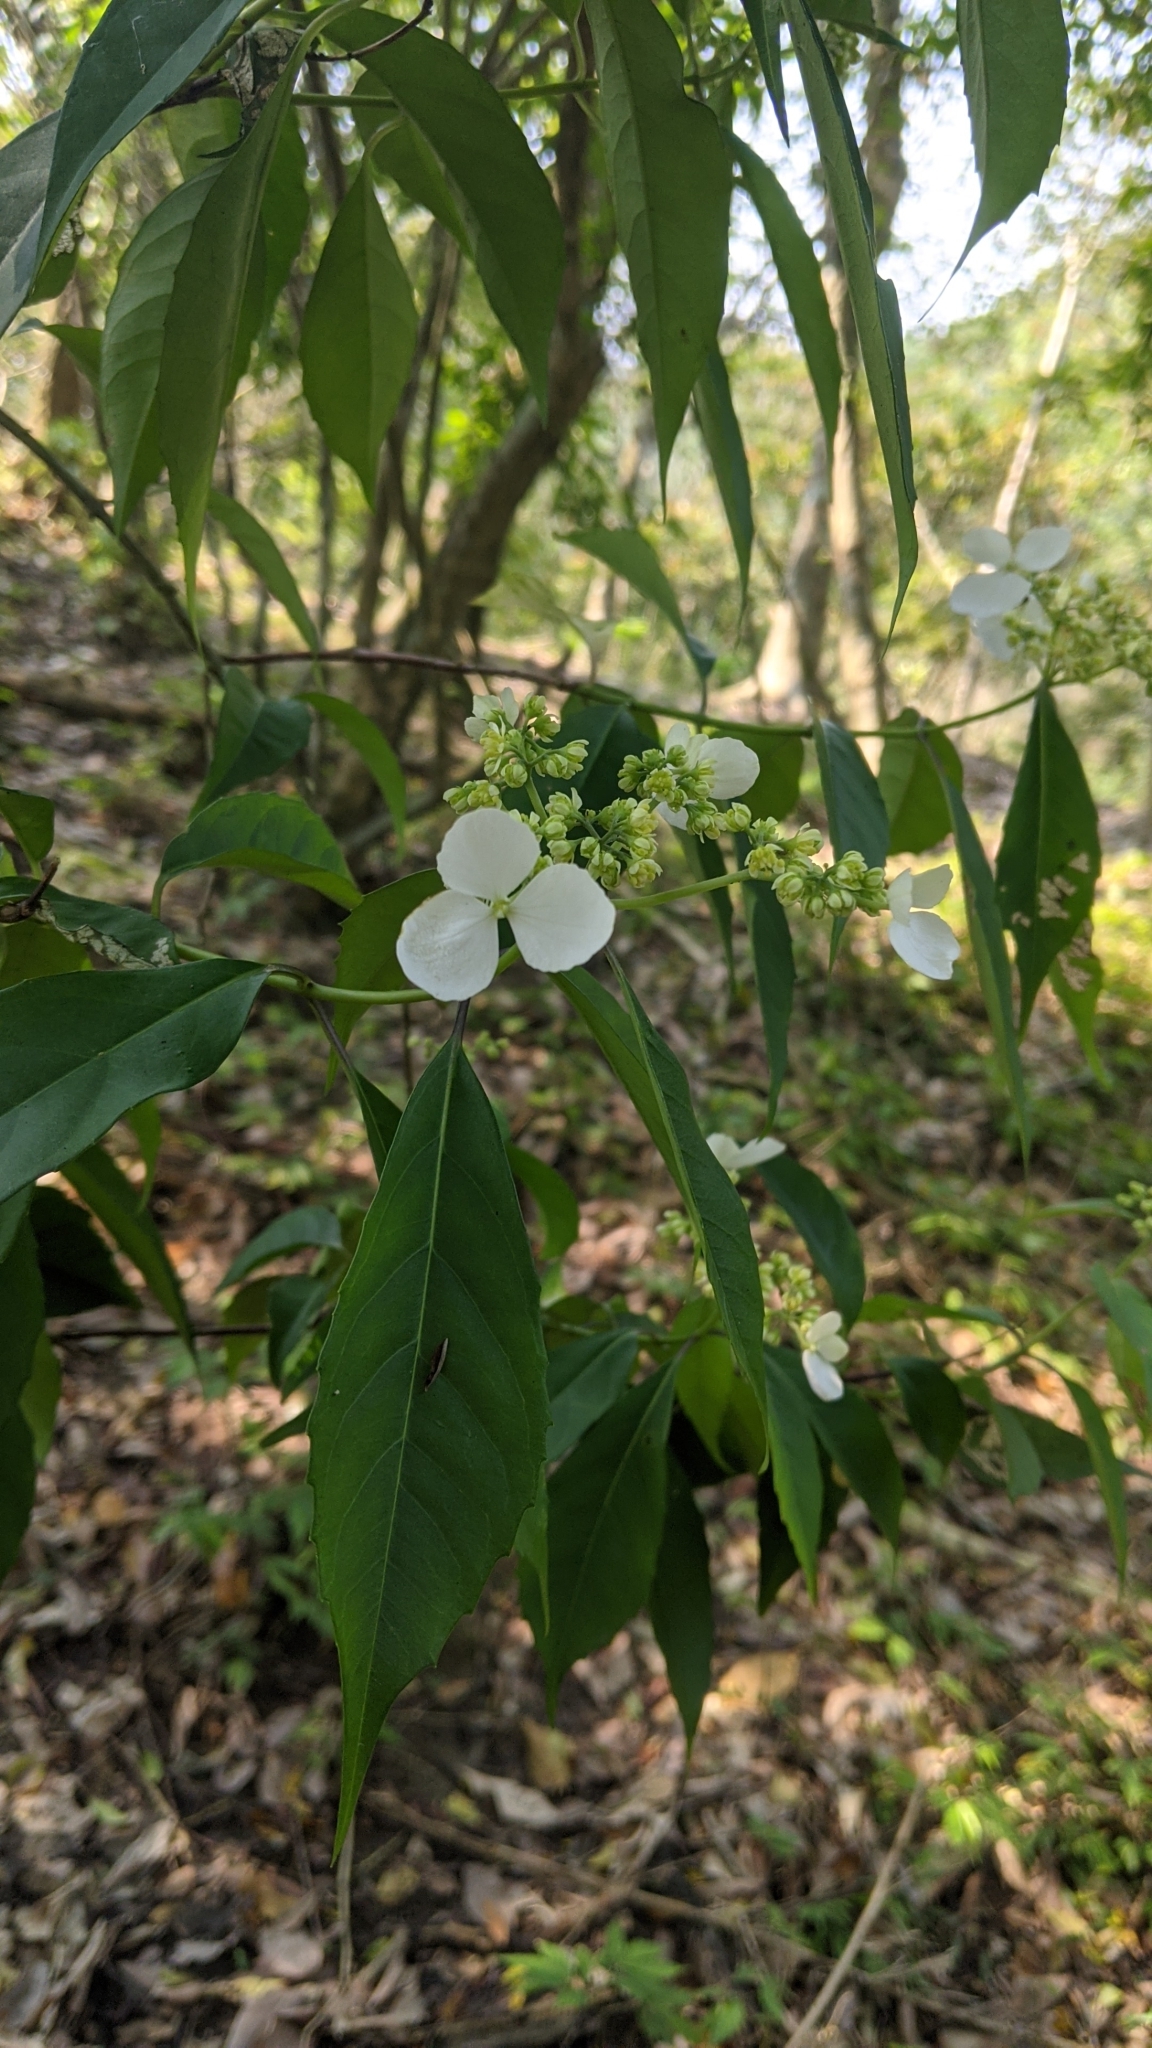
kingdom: Plantae
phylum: Tracheophyta
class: Magnoliopsida
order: Cornales
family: Hydrangeaceae
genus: Hydrangea
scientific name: Hydrangea chinensis
